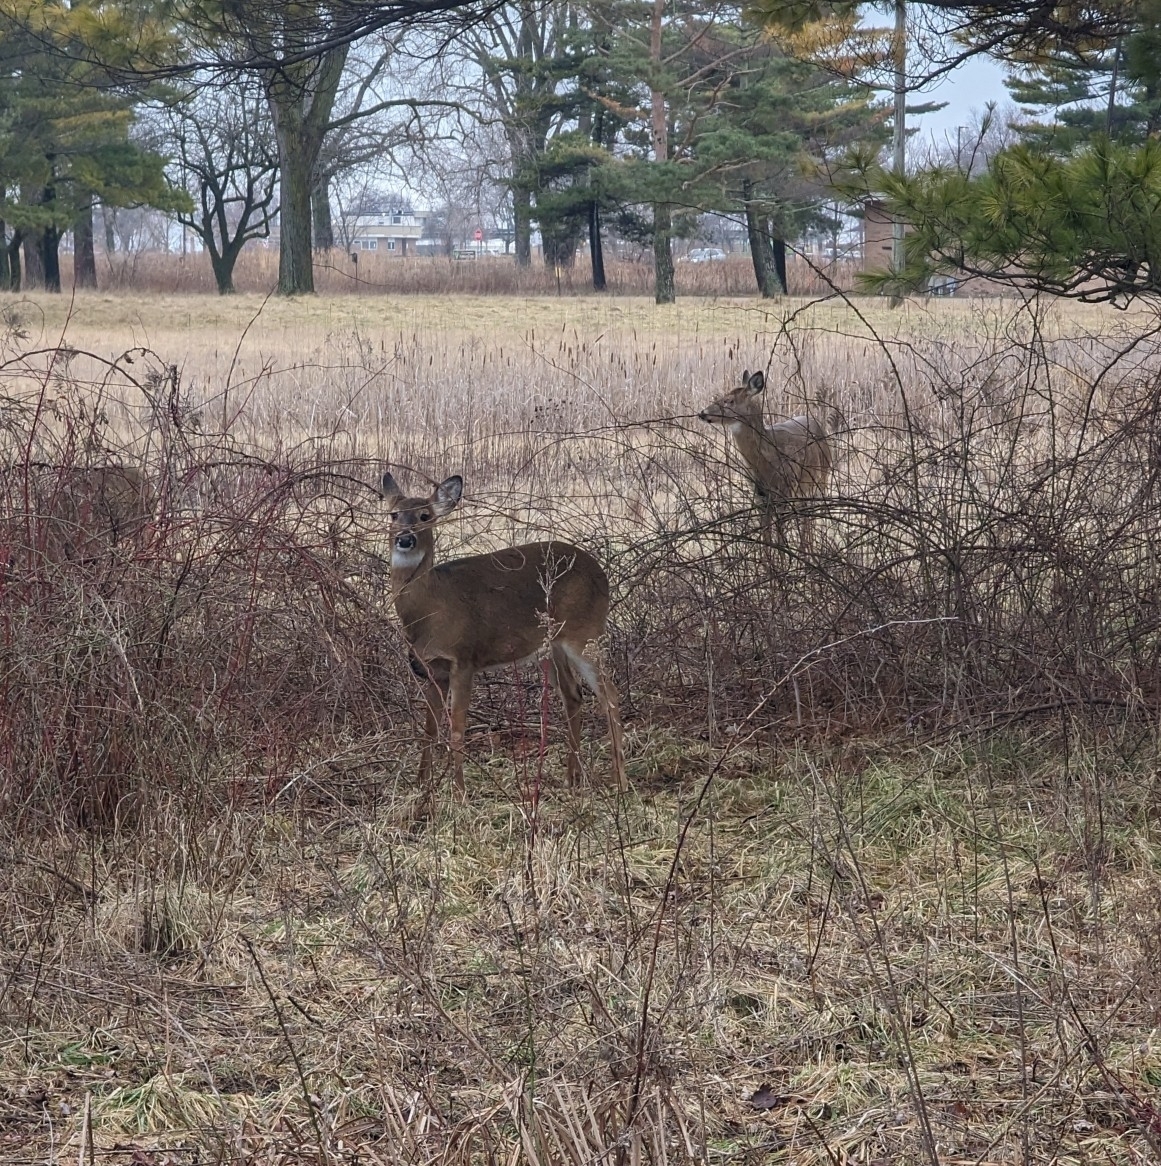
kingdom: Animalia
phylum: Chordata
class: Mammalia
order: Artiodactyla
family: Cervidae
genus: Odocoileus
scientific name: Odocoileus virginianus
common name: White-tailed deer
